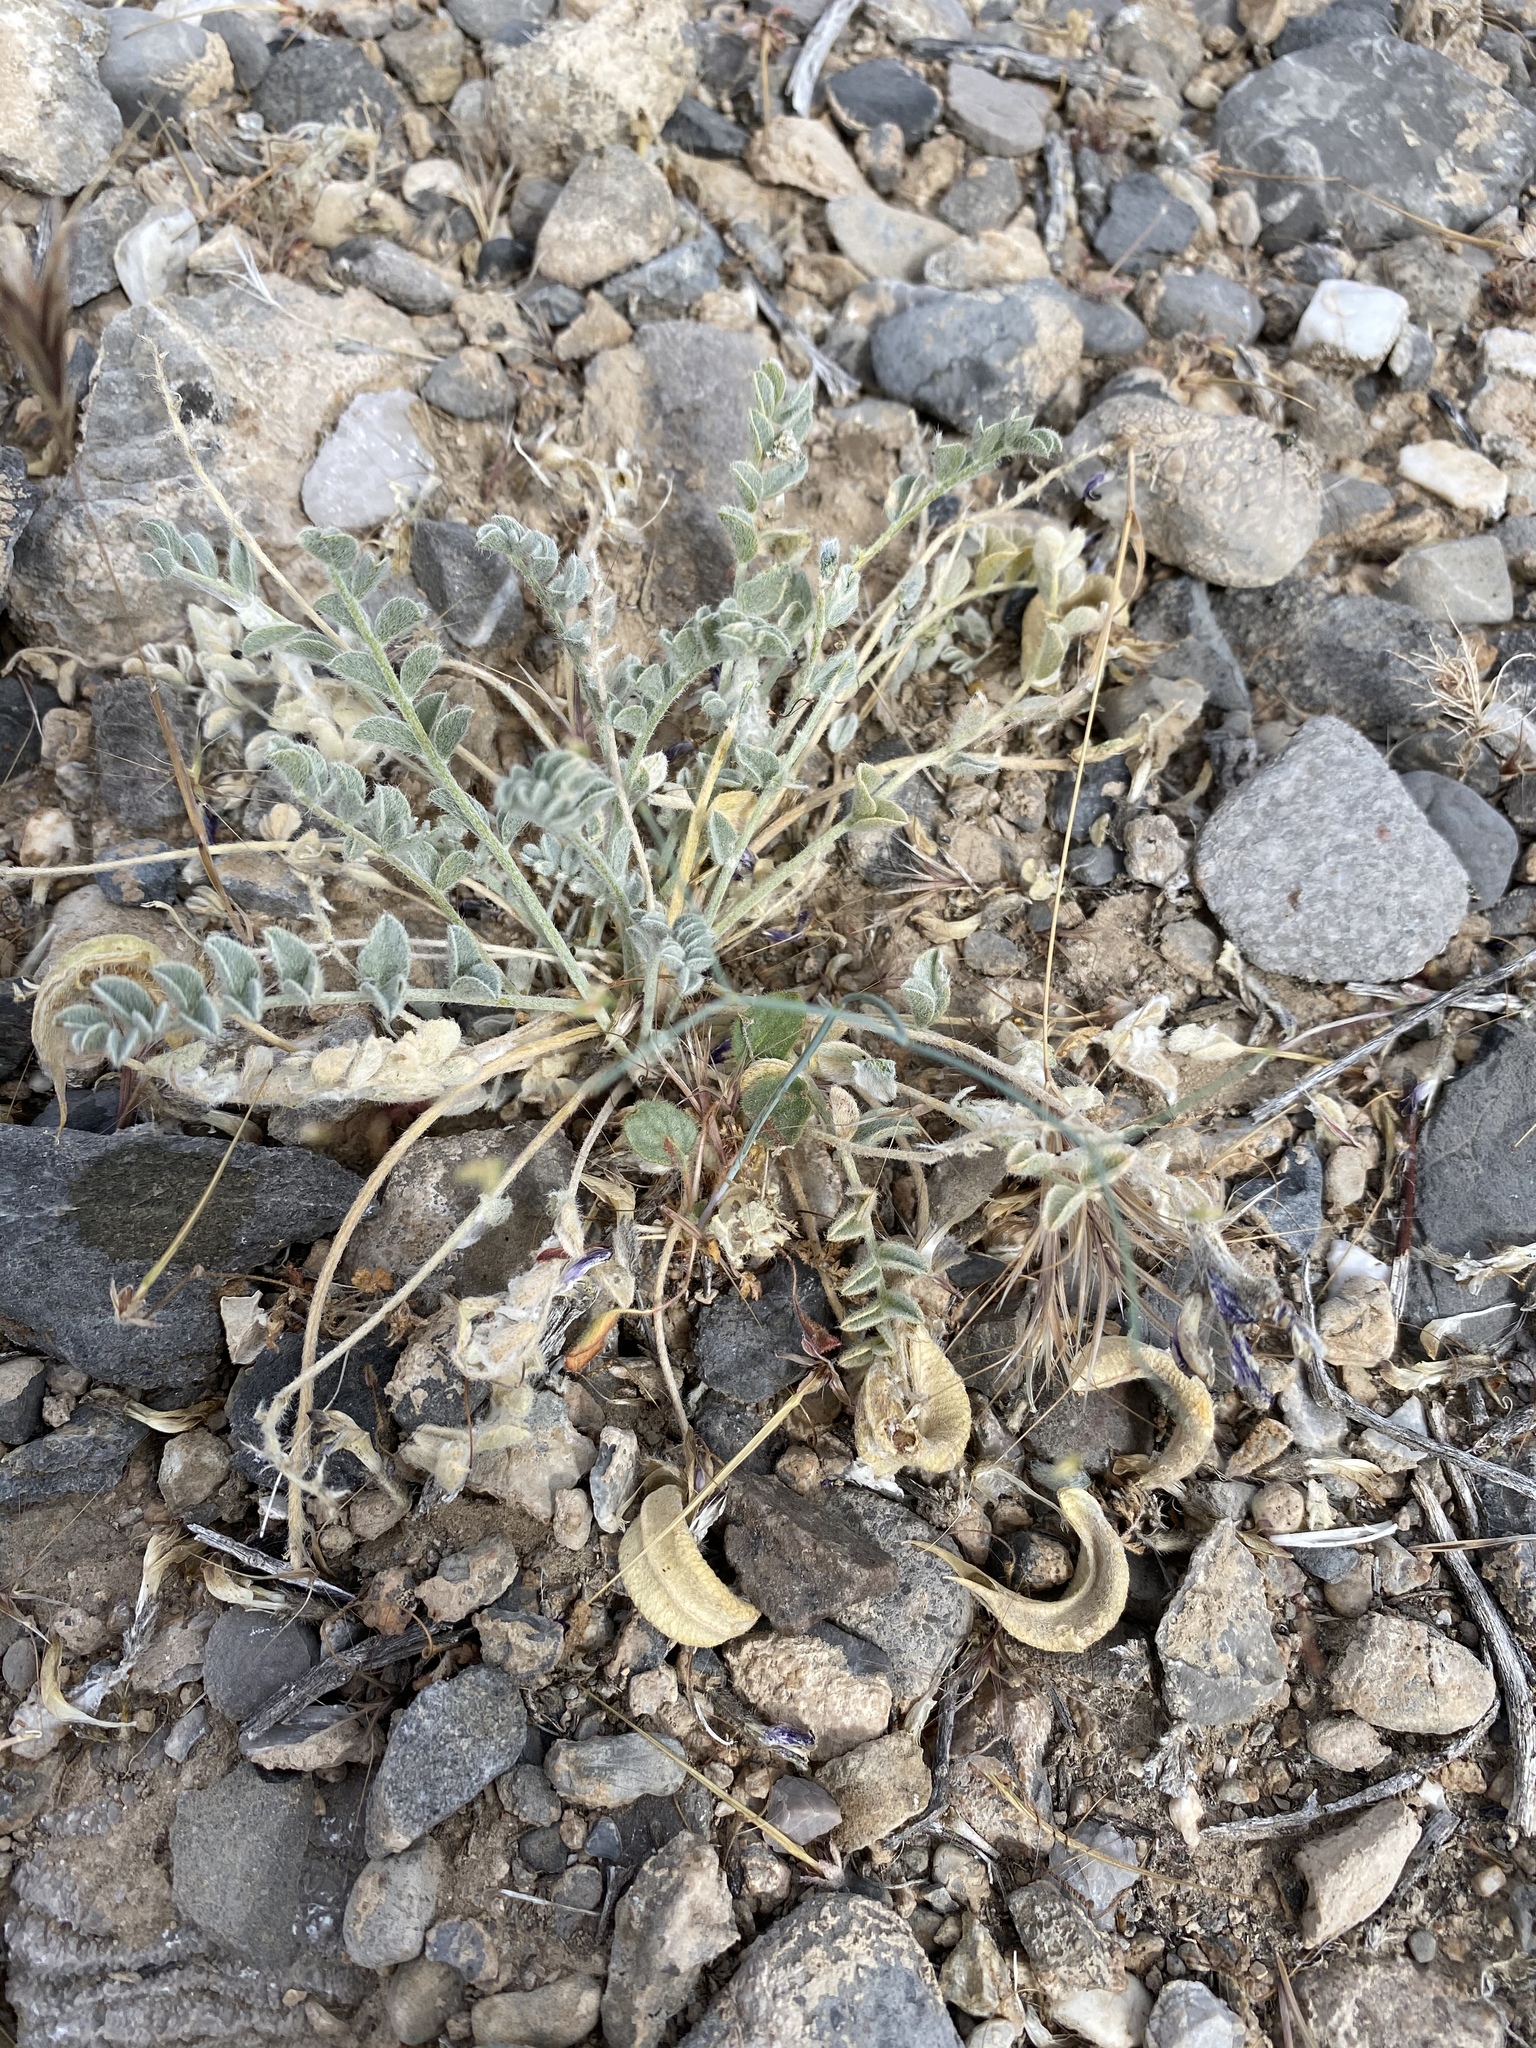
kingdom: Plantae
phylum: Tracheophyta
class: Magnoliopsida
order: Fabales
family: Fabaceae
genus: Astragalus
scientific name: Astragalus mohavensis
